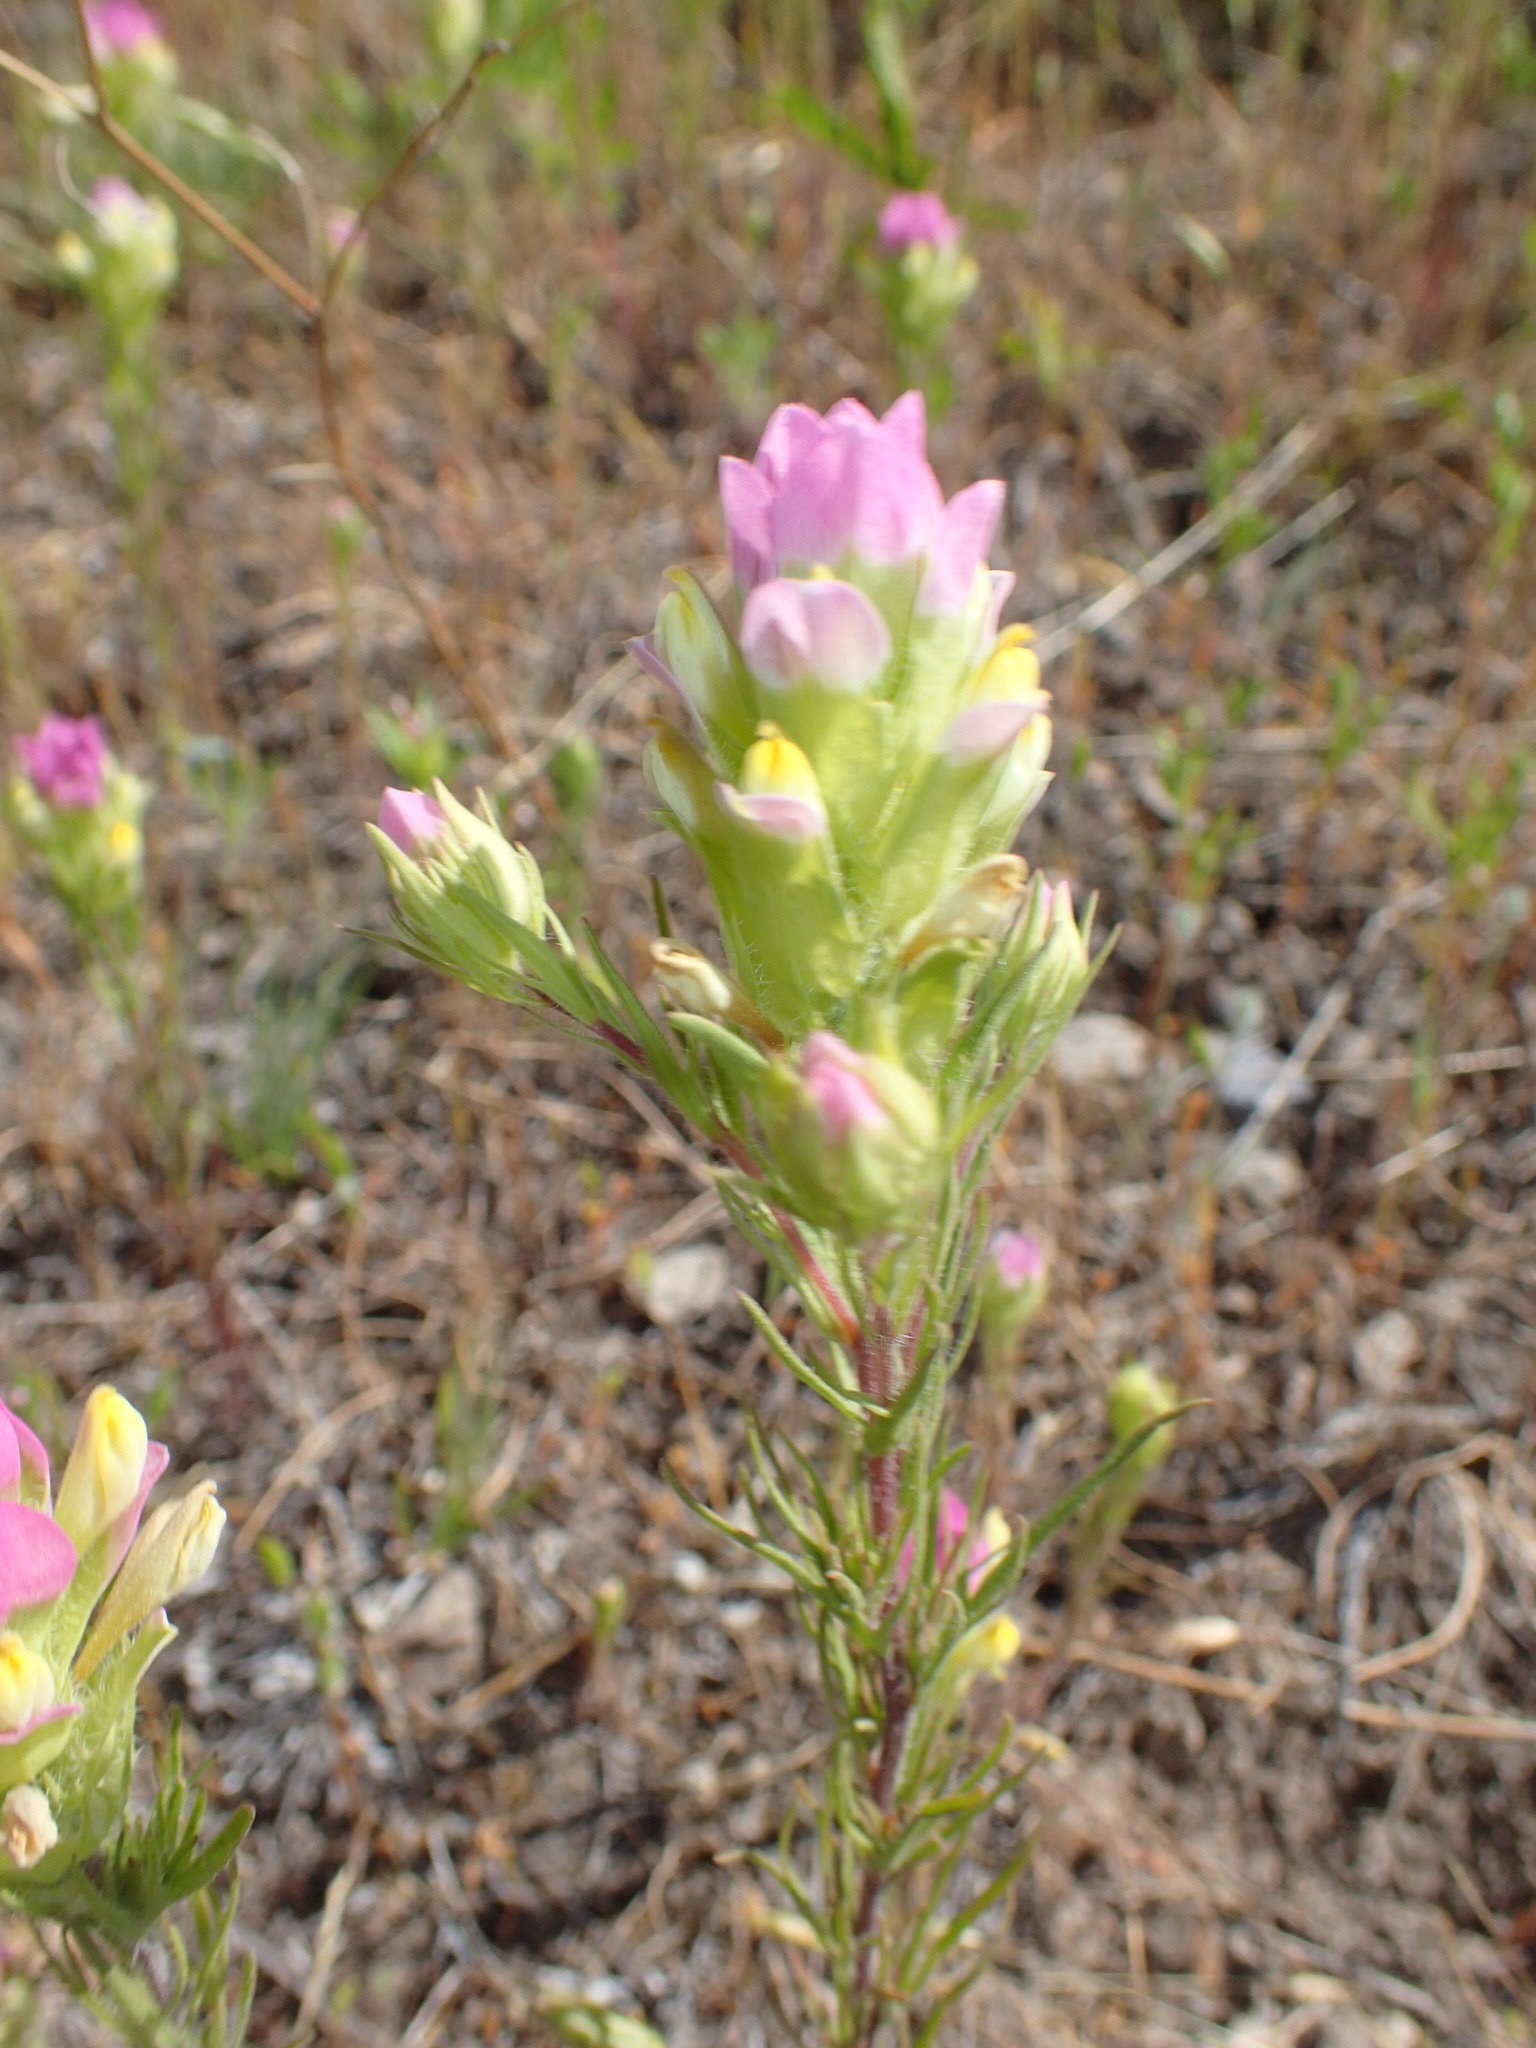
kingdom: Plantae
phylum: Tracheophyta
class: Magnoliopsida
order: Lamiales
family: Orobanchaceae
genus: Orthocarpus
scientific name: Orthocarpus tenuifolius
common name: Thin-leaved owl's-clover
